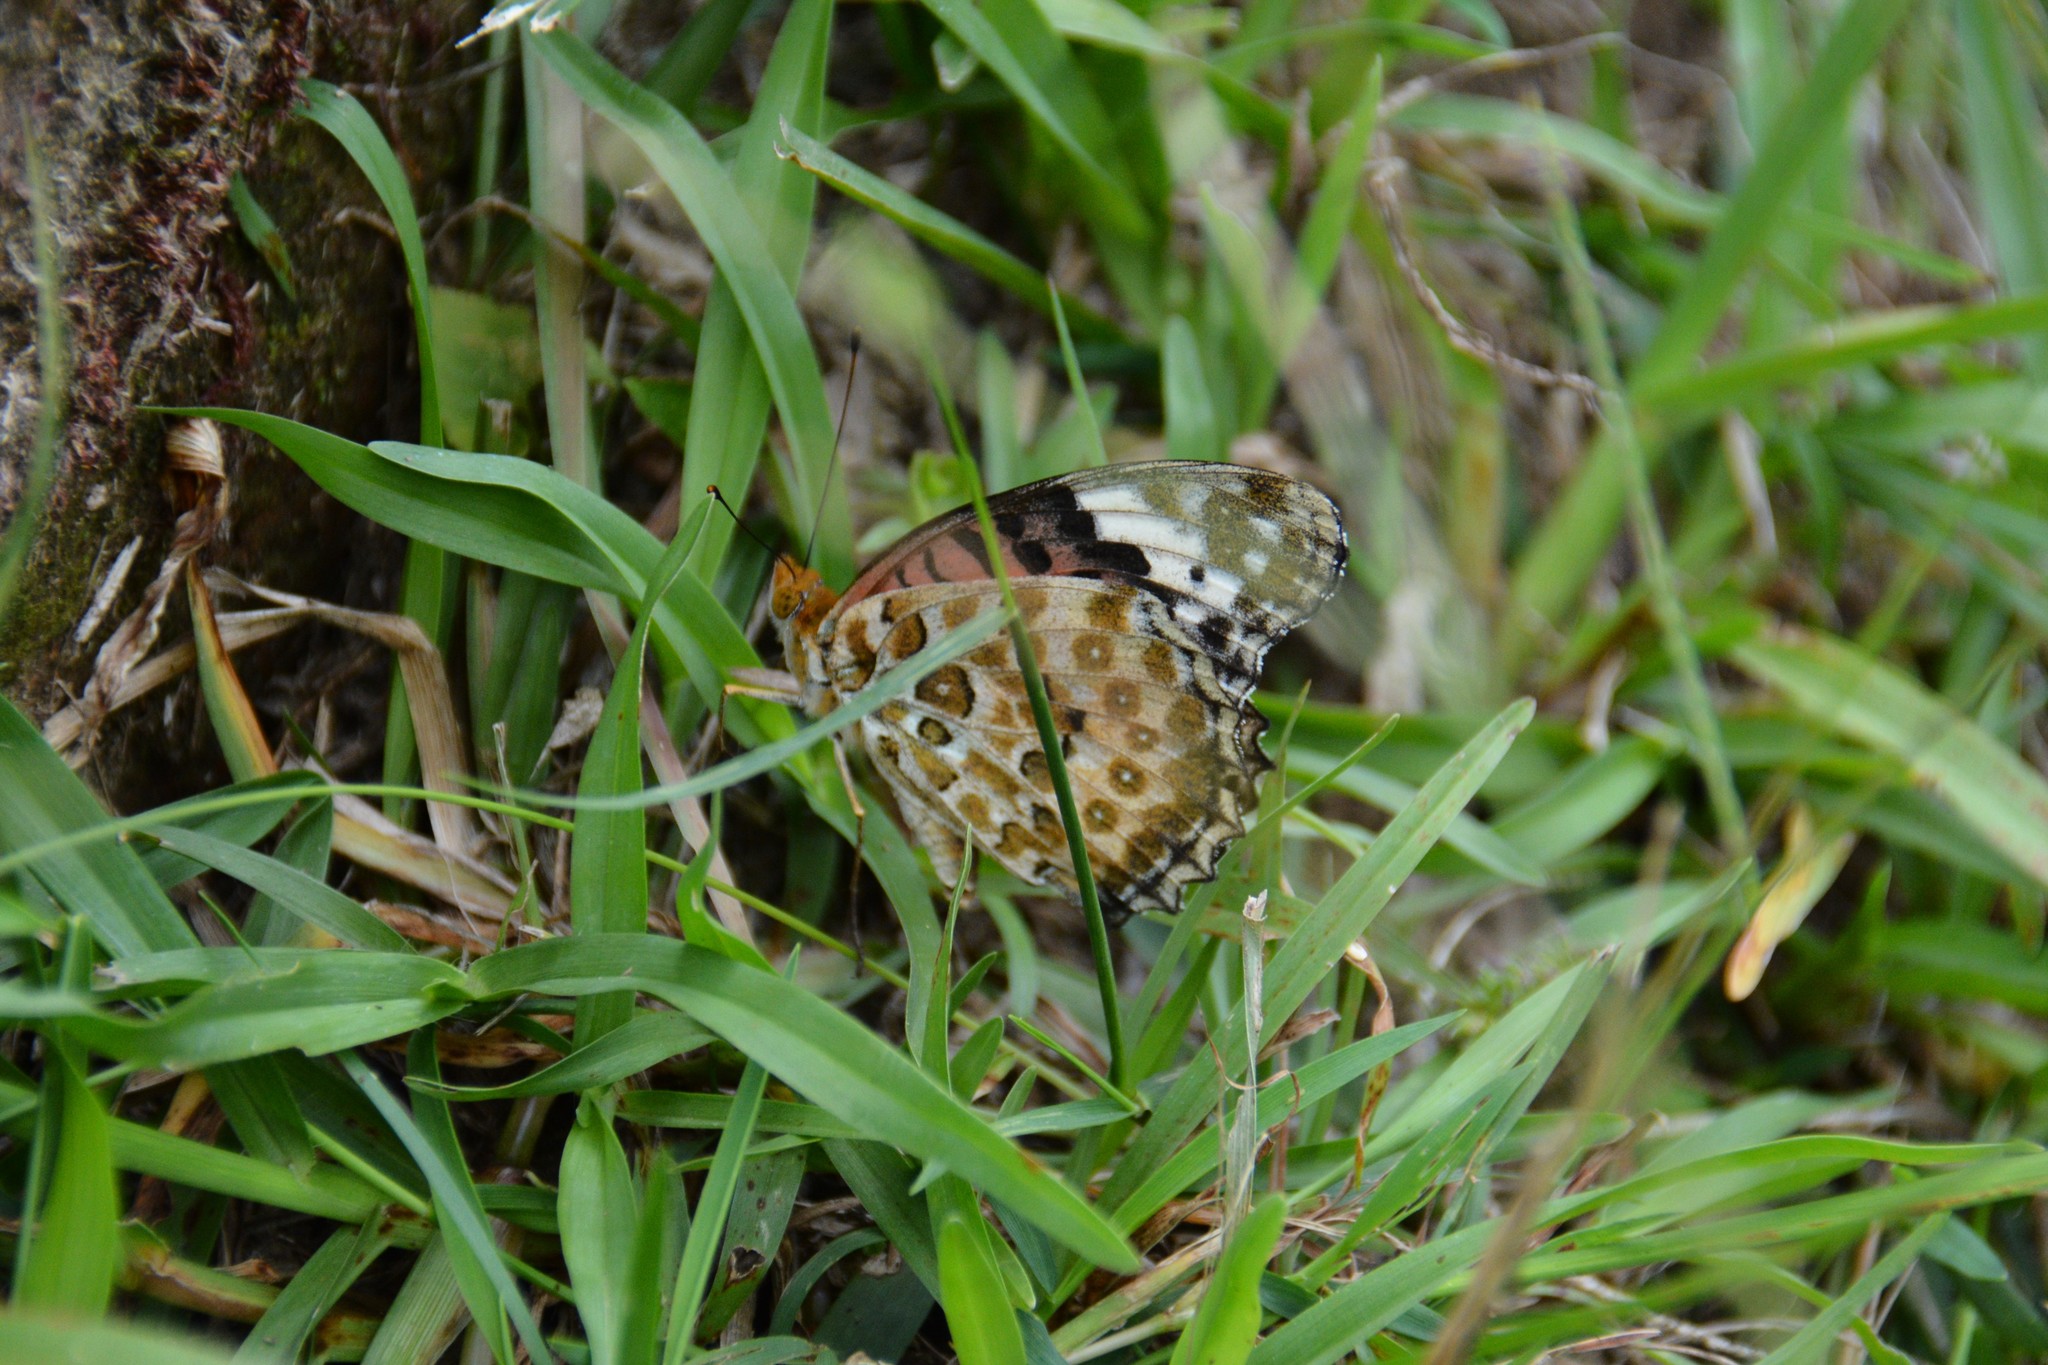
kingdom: Animalia
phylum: Arthropoda
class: Insecta
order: Lepidoptera
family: Nymphalidae
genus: Argynnis
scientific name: Argynnis hyperbius
